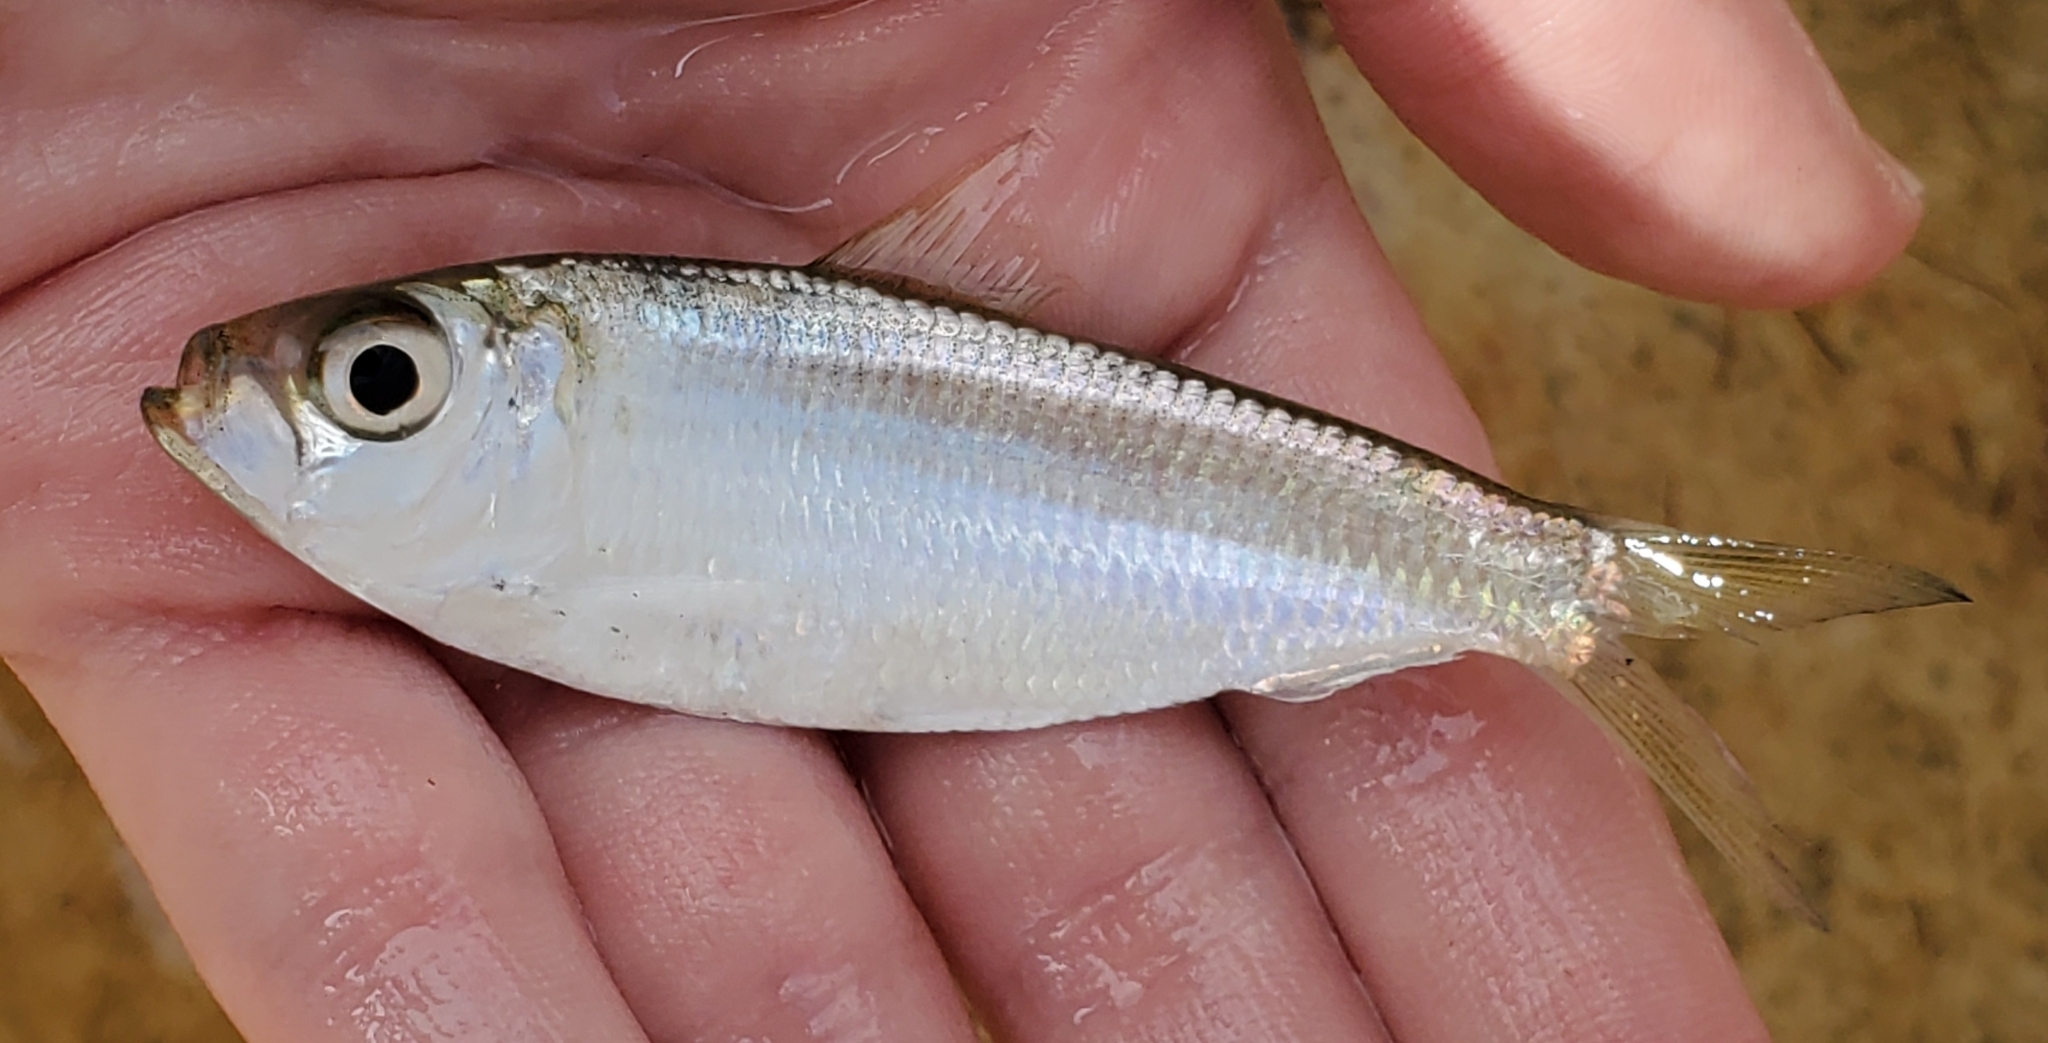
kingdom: Animalia
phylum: Chordata
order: Clupeiformes
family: Clupeidae
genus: Harengula
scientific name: Harengula jaguana
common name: Scaled sardine
